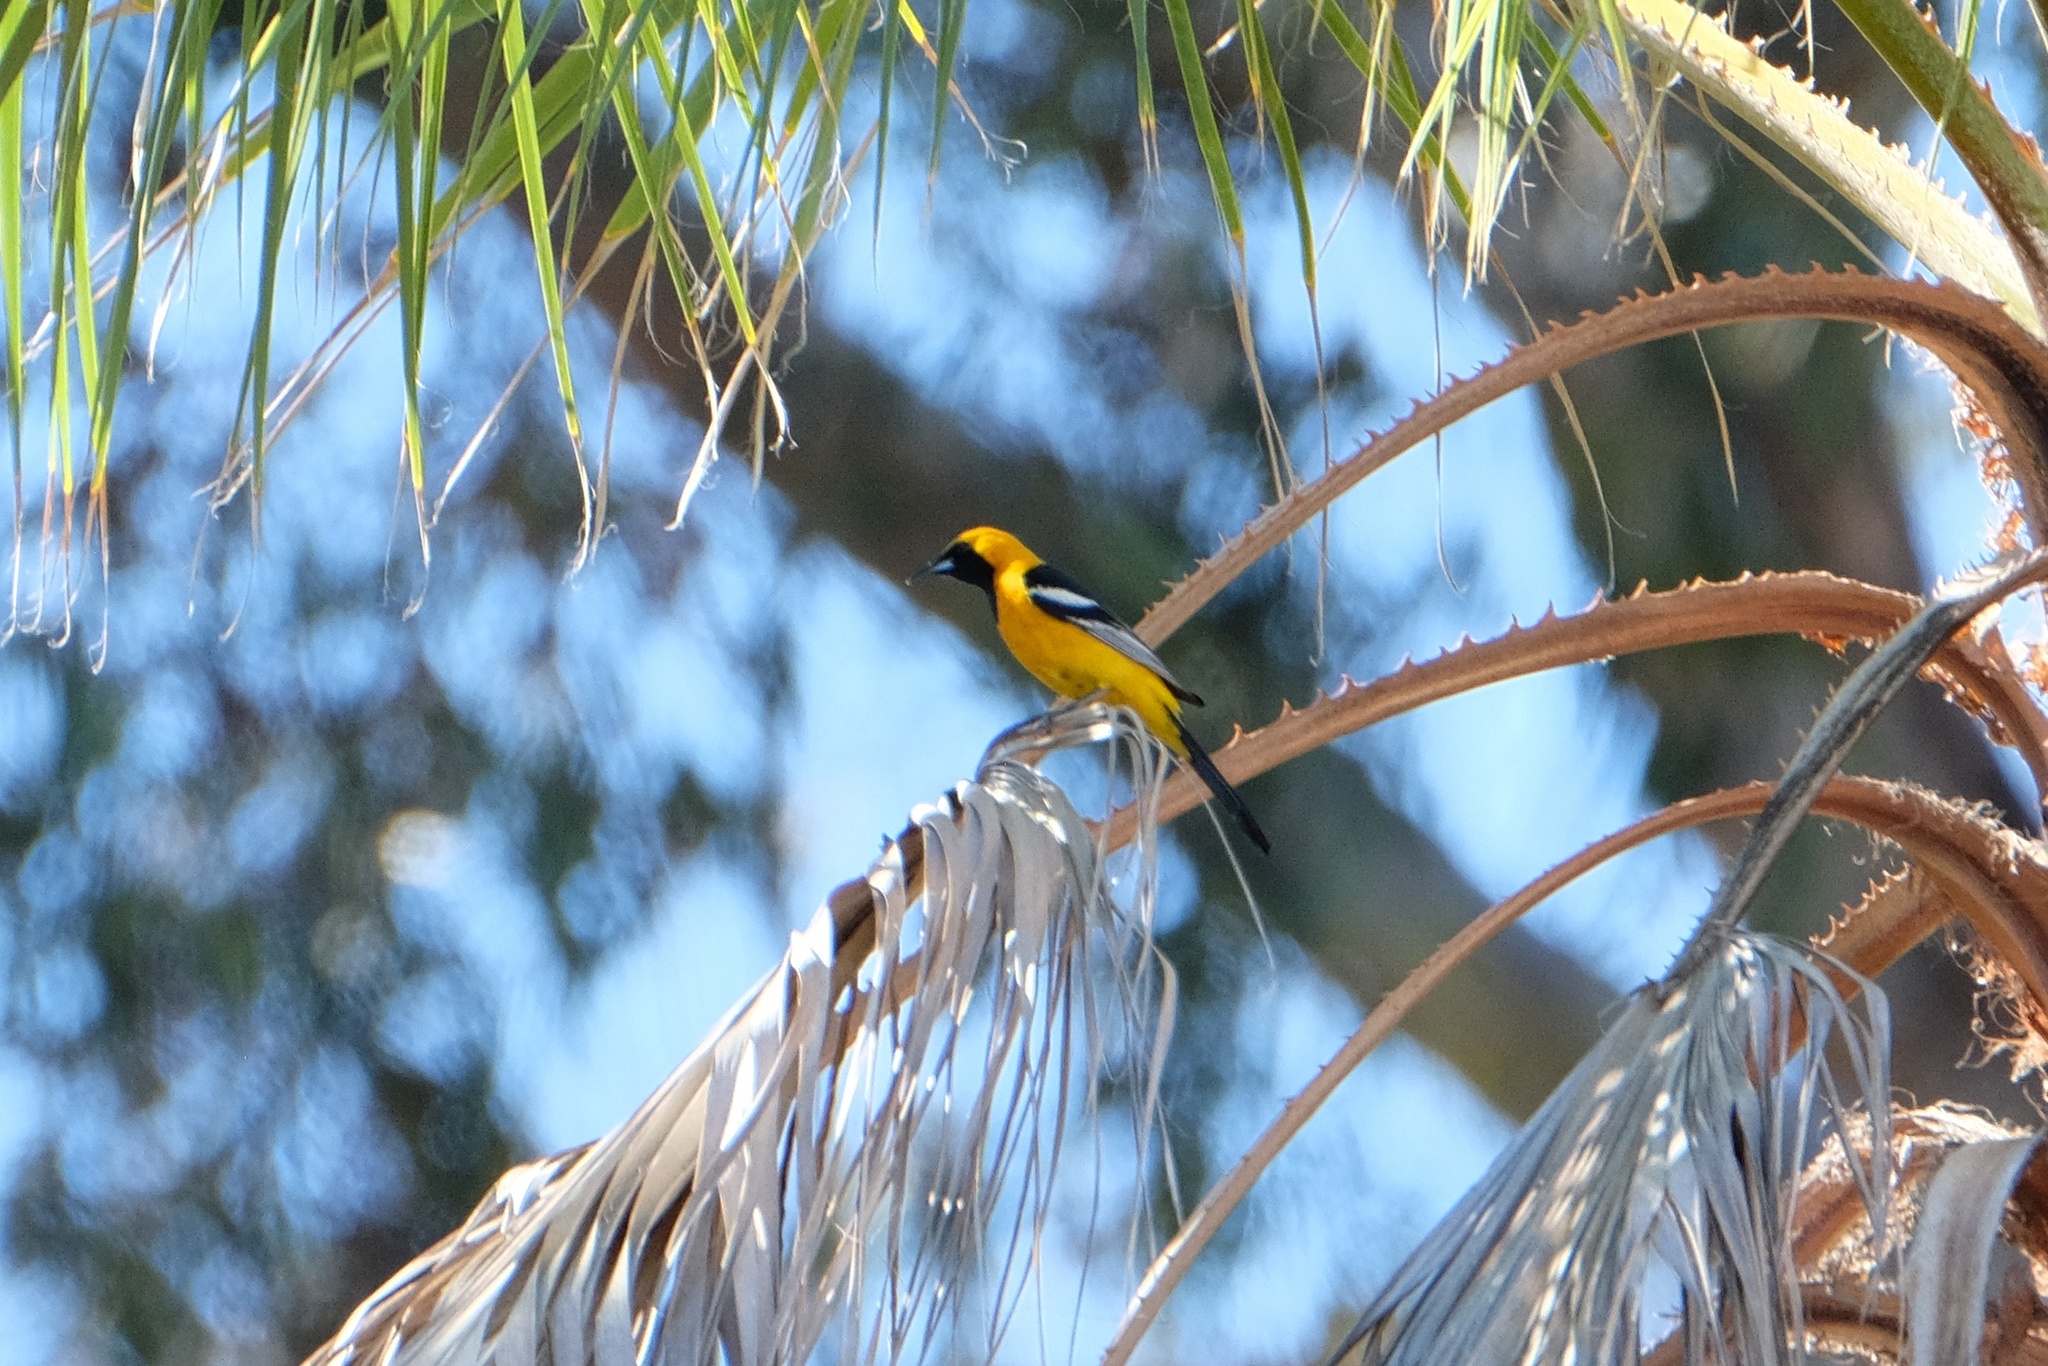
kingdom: Animalia
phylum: Chordata
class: Aves
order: Passeriformes
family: Icteridae
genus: Icterus
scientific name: Icterus cucullatus
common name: Hooded oriole
